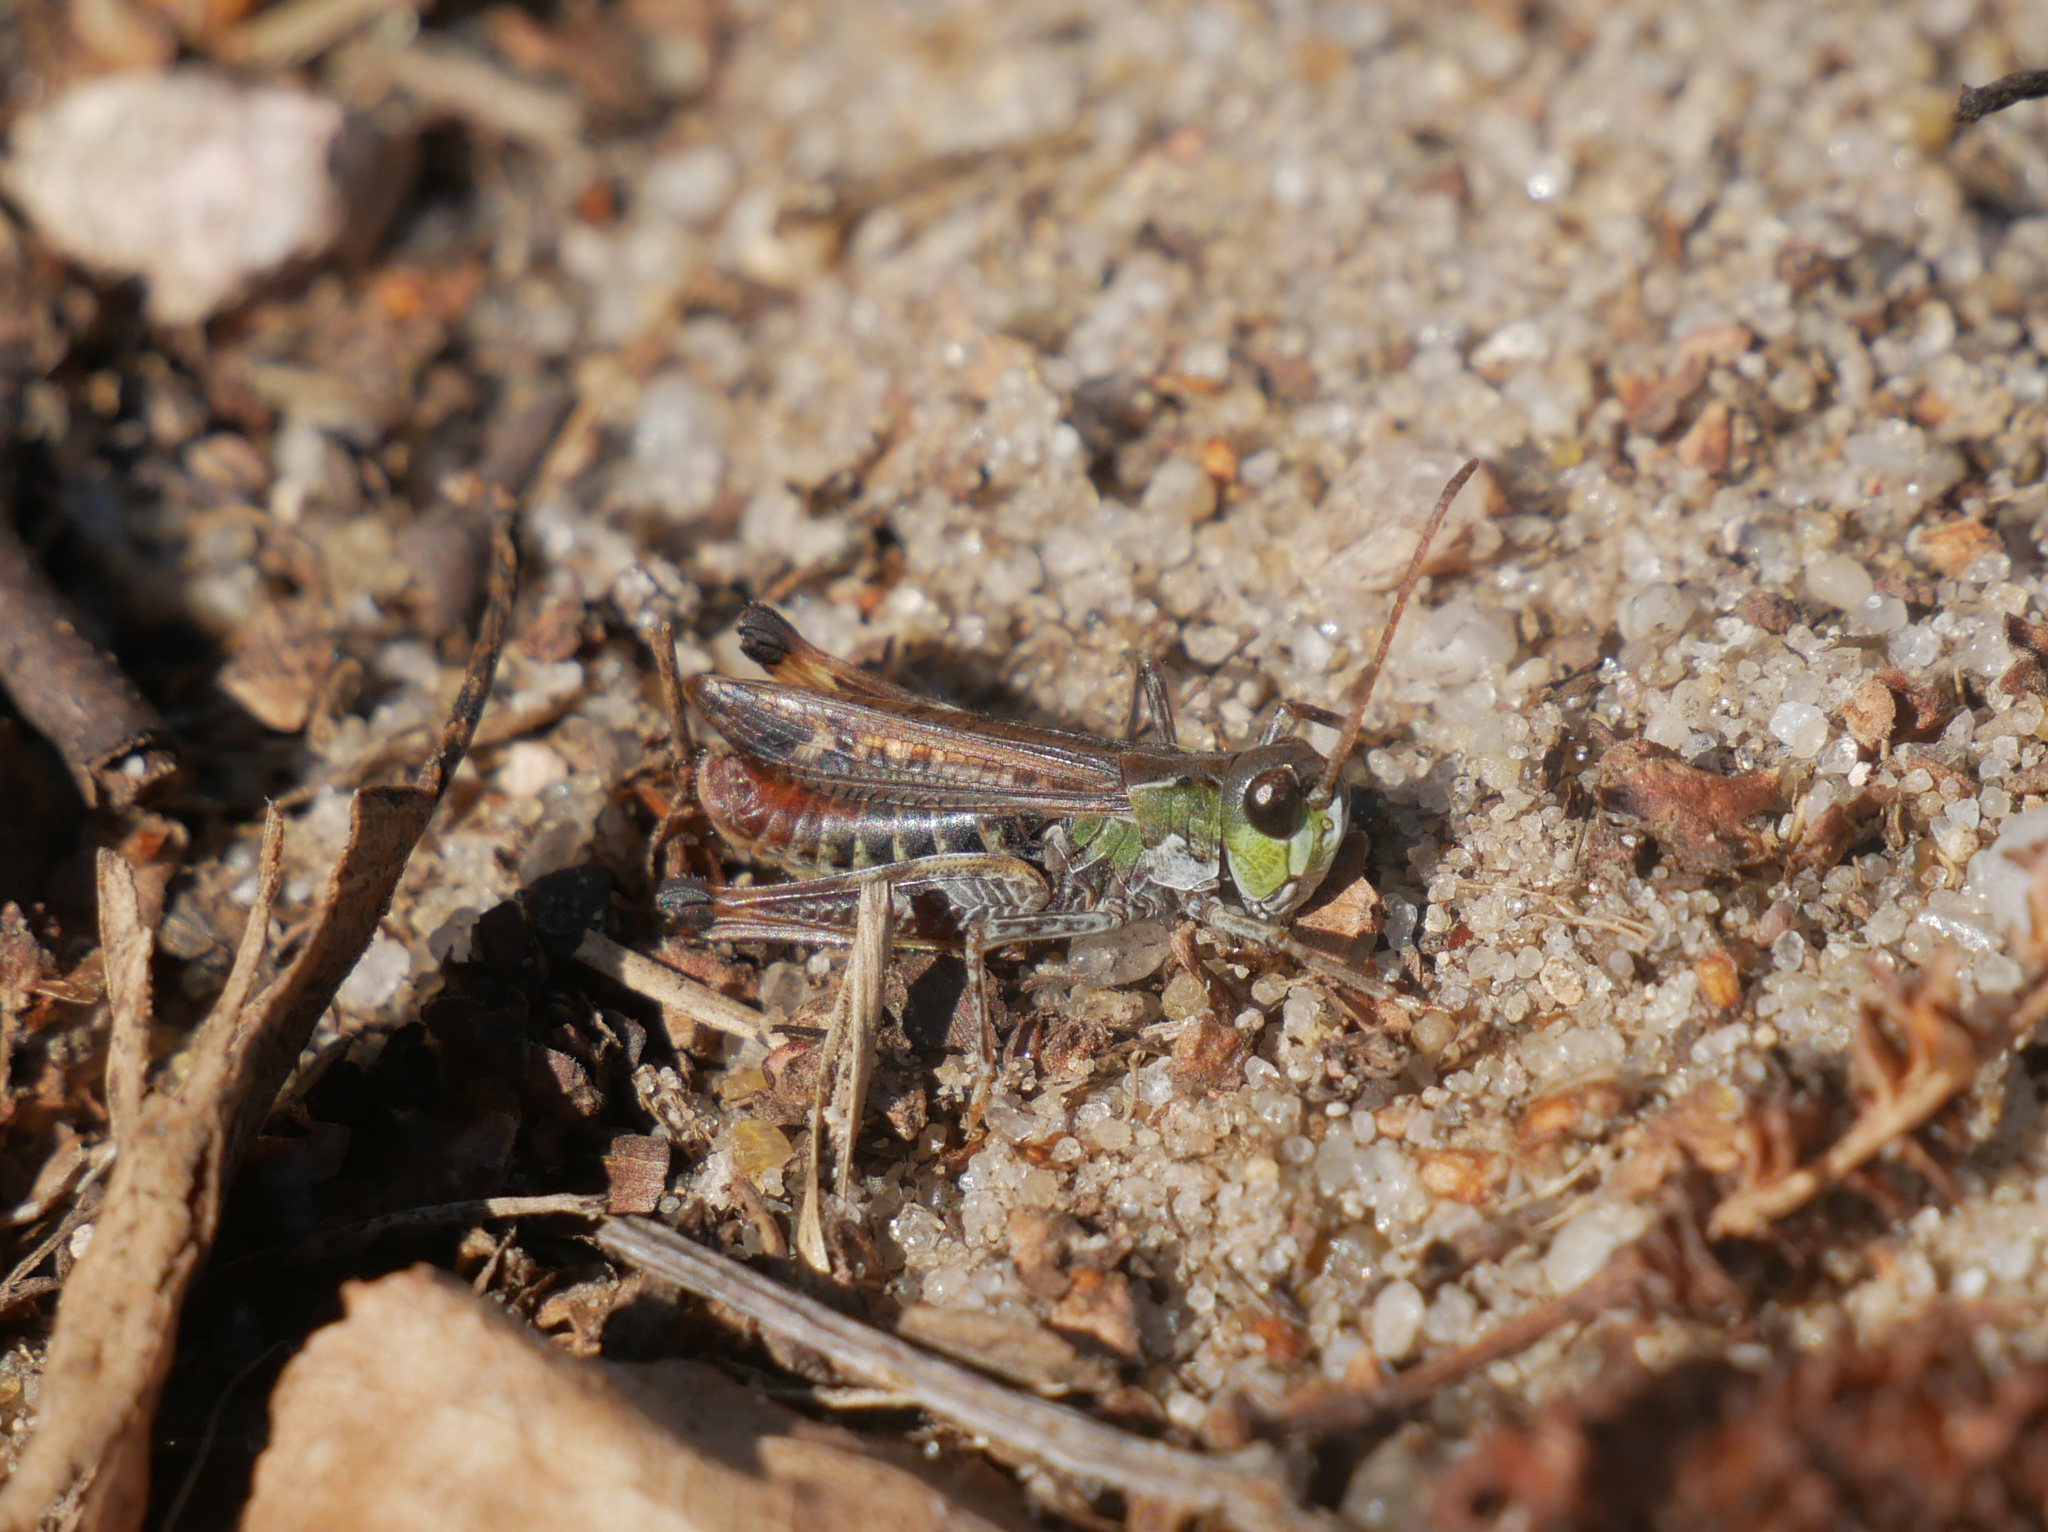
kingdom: Animalia
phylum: Arthropoda
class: Insecta
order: Orthoptera
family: Acrididae
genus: Myrmeleotettix
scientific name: Myrmeleotettix maculatus
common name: Mottled grasshopper
